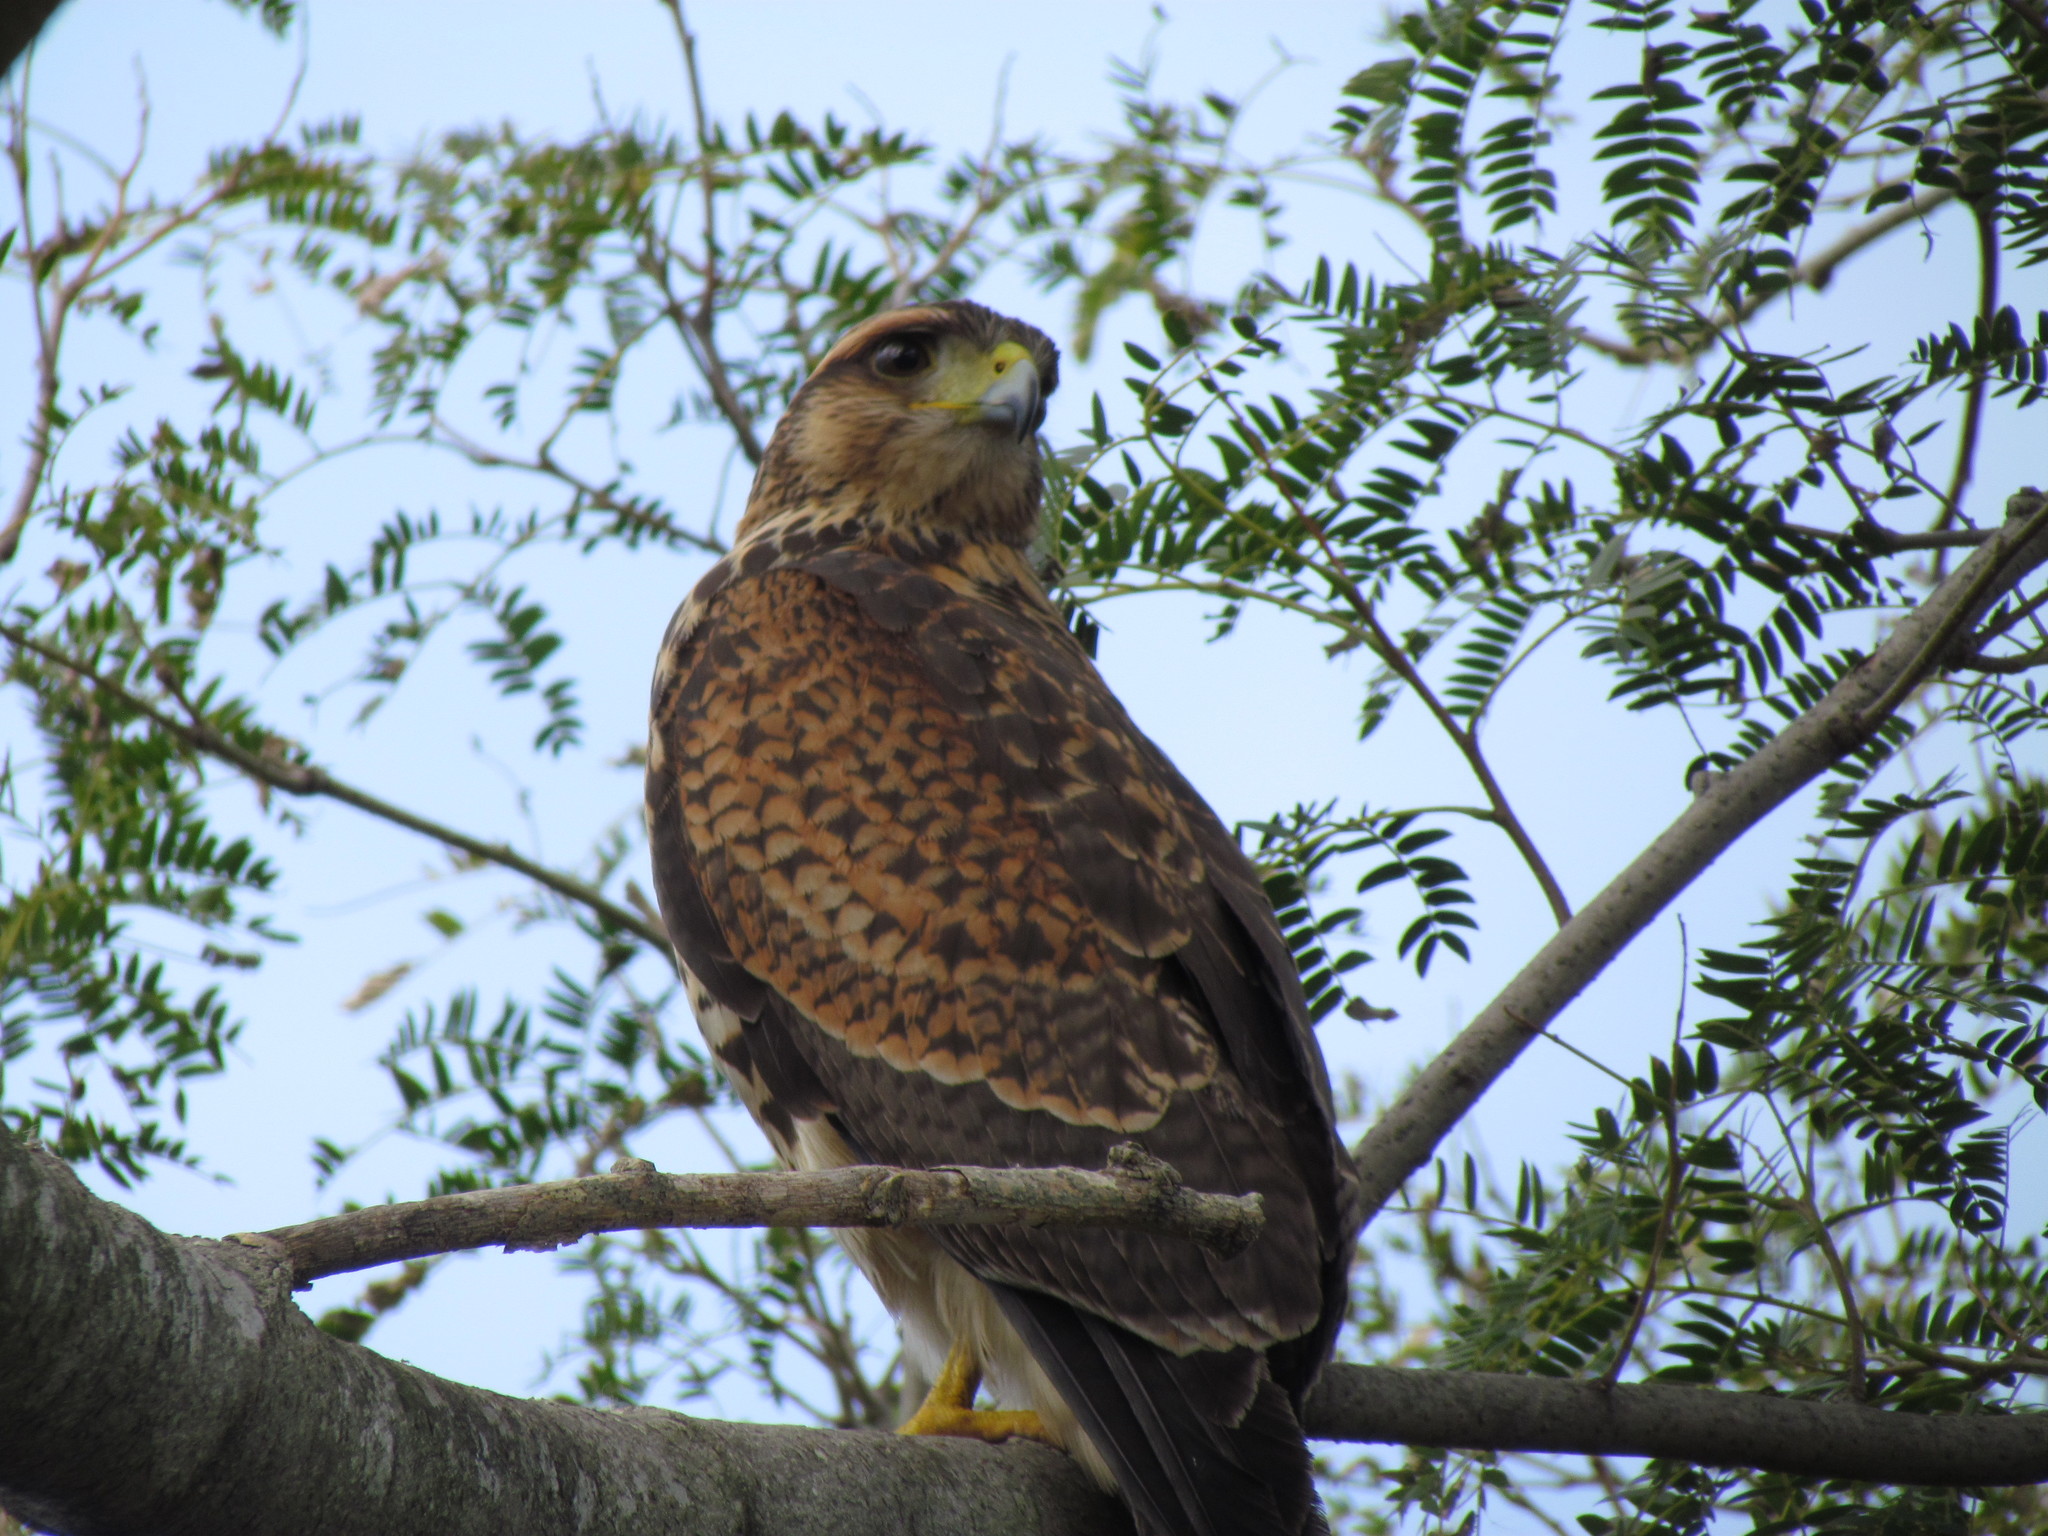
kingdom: Animalia
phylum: Chordata
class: Aves
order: Accipitriformes
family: Accipitridae
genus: Parabuteo
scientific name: Parabuteo unicinctus
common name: Harris's hawk
